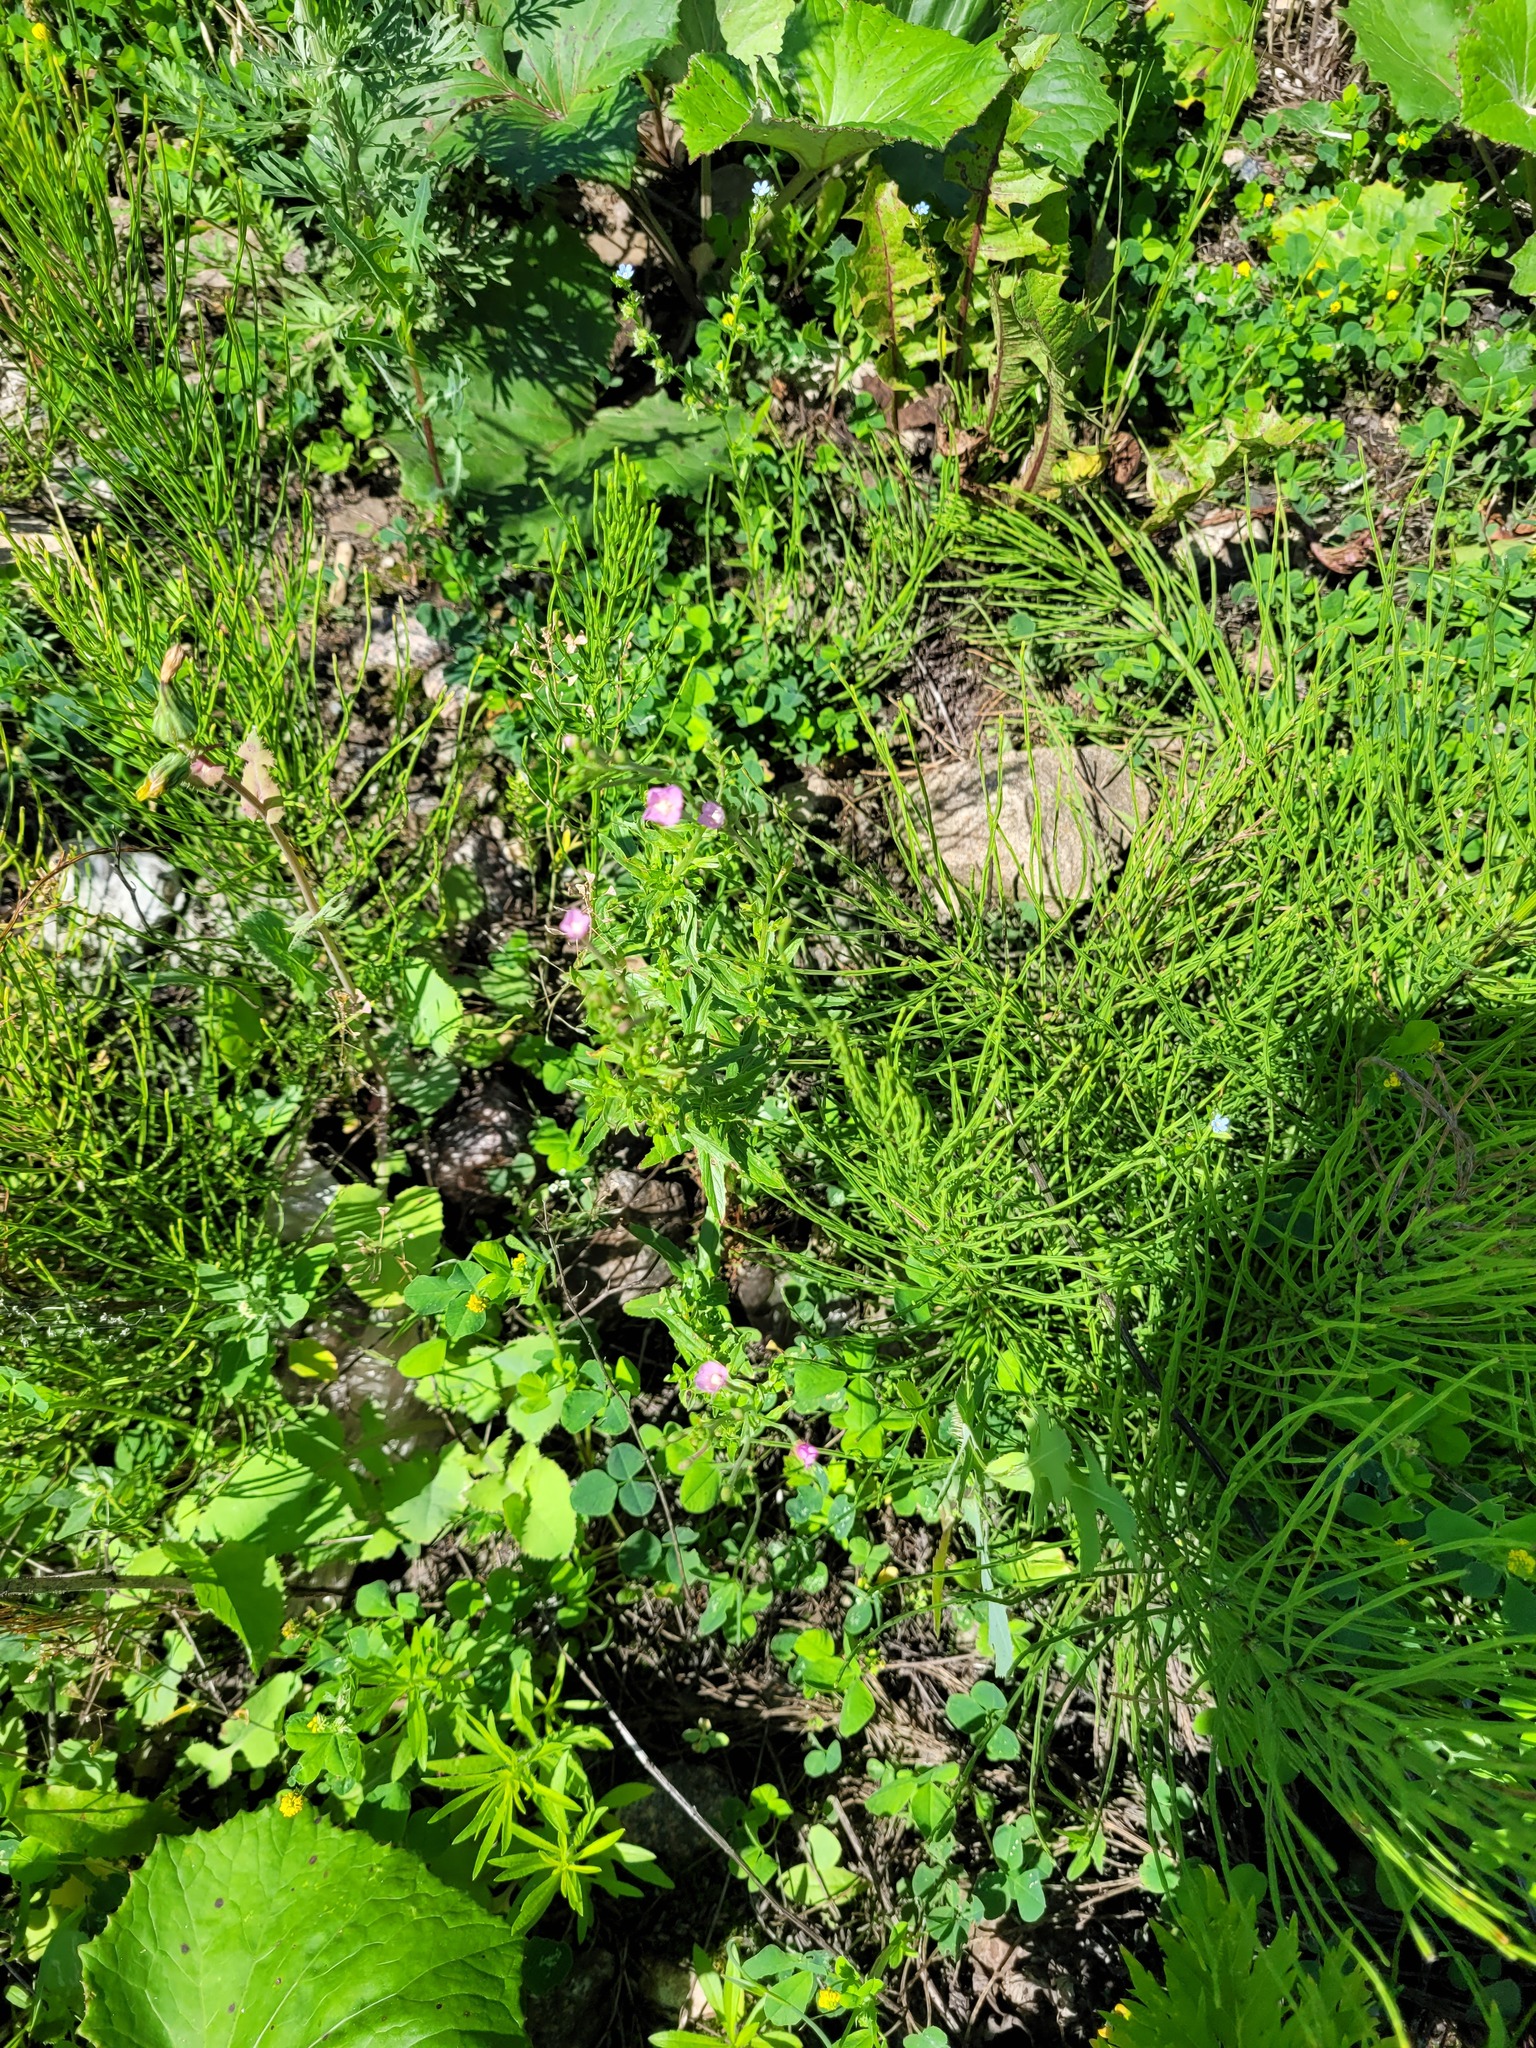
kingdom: Plantae
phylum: Tracheophyta
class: Magnoliopsida
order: Myrtales
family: Onagraceae
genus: Epilobium
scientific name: Epilobium lamyi
